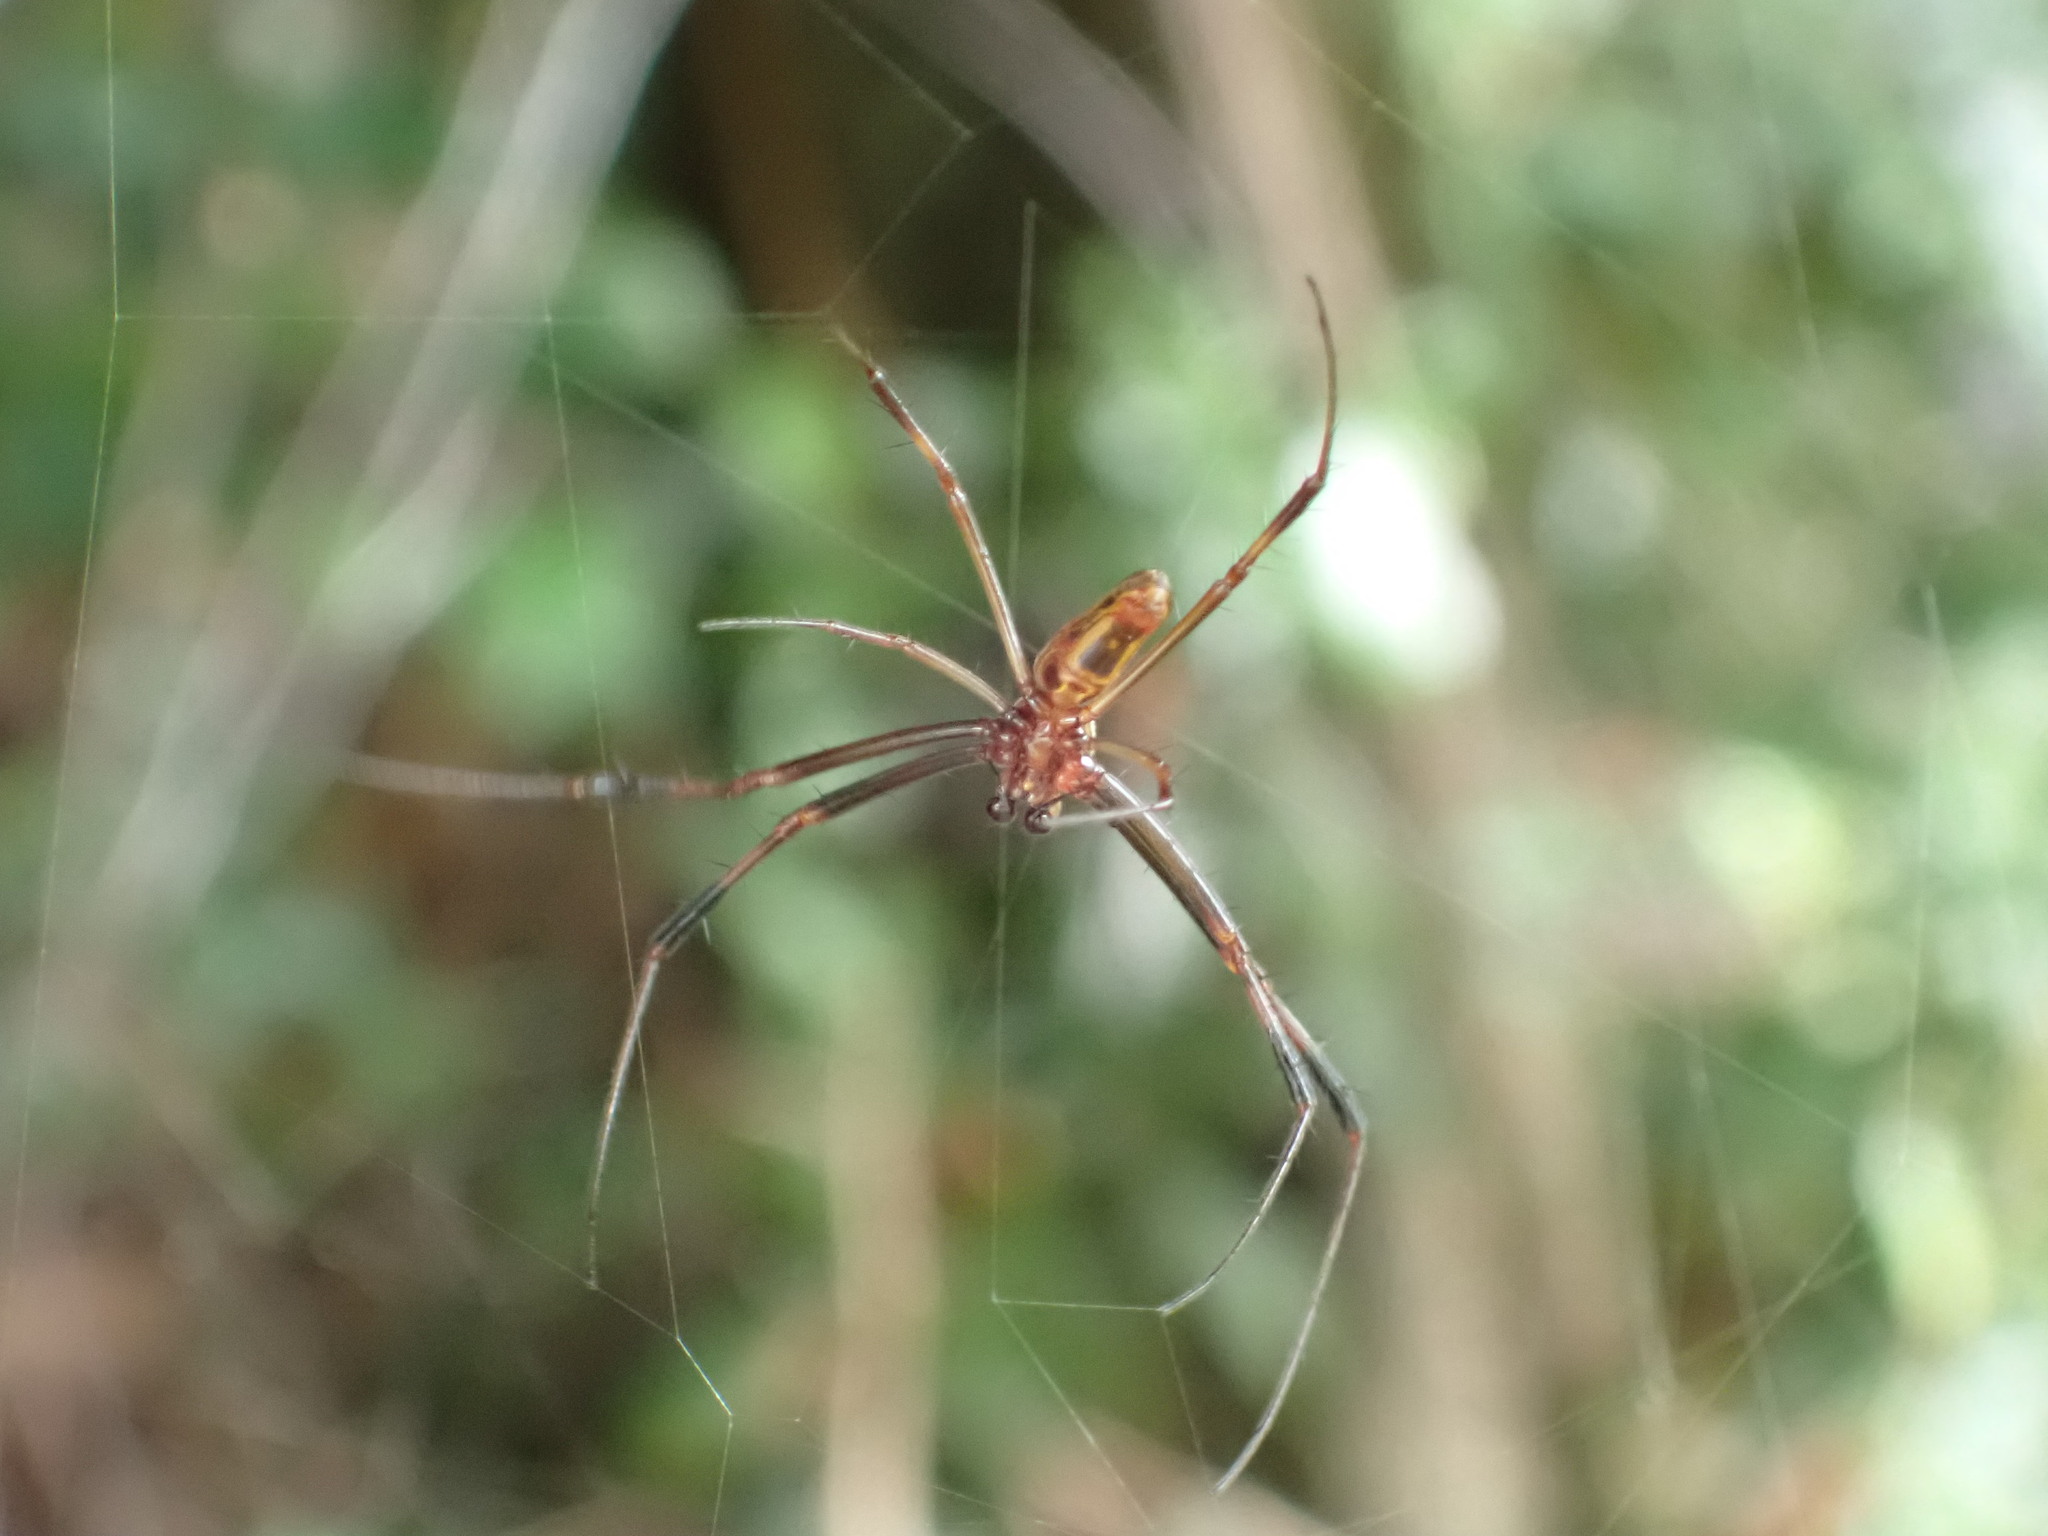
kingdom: Animalia
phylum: Arthropoda
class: Arachnida
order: Araneae
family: Araneidae
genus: Trichonephila
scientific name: Trichonephila clavipes
